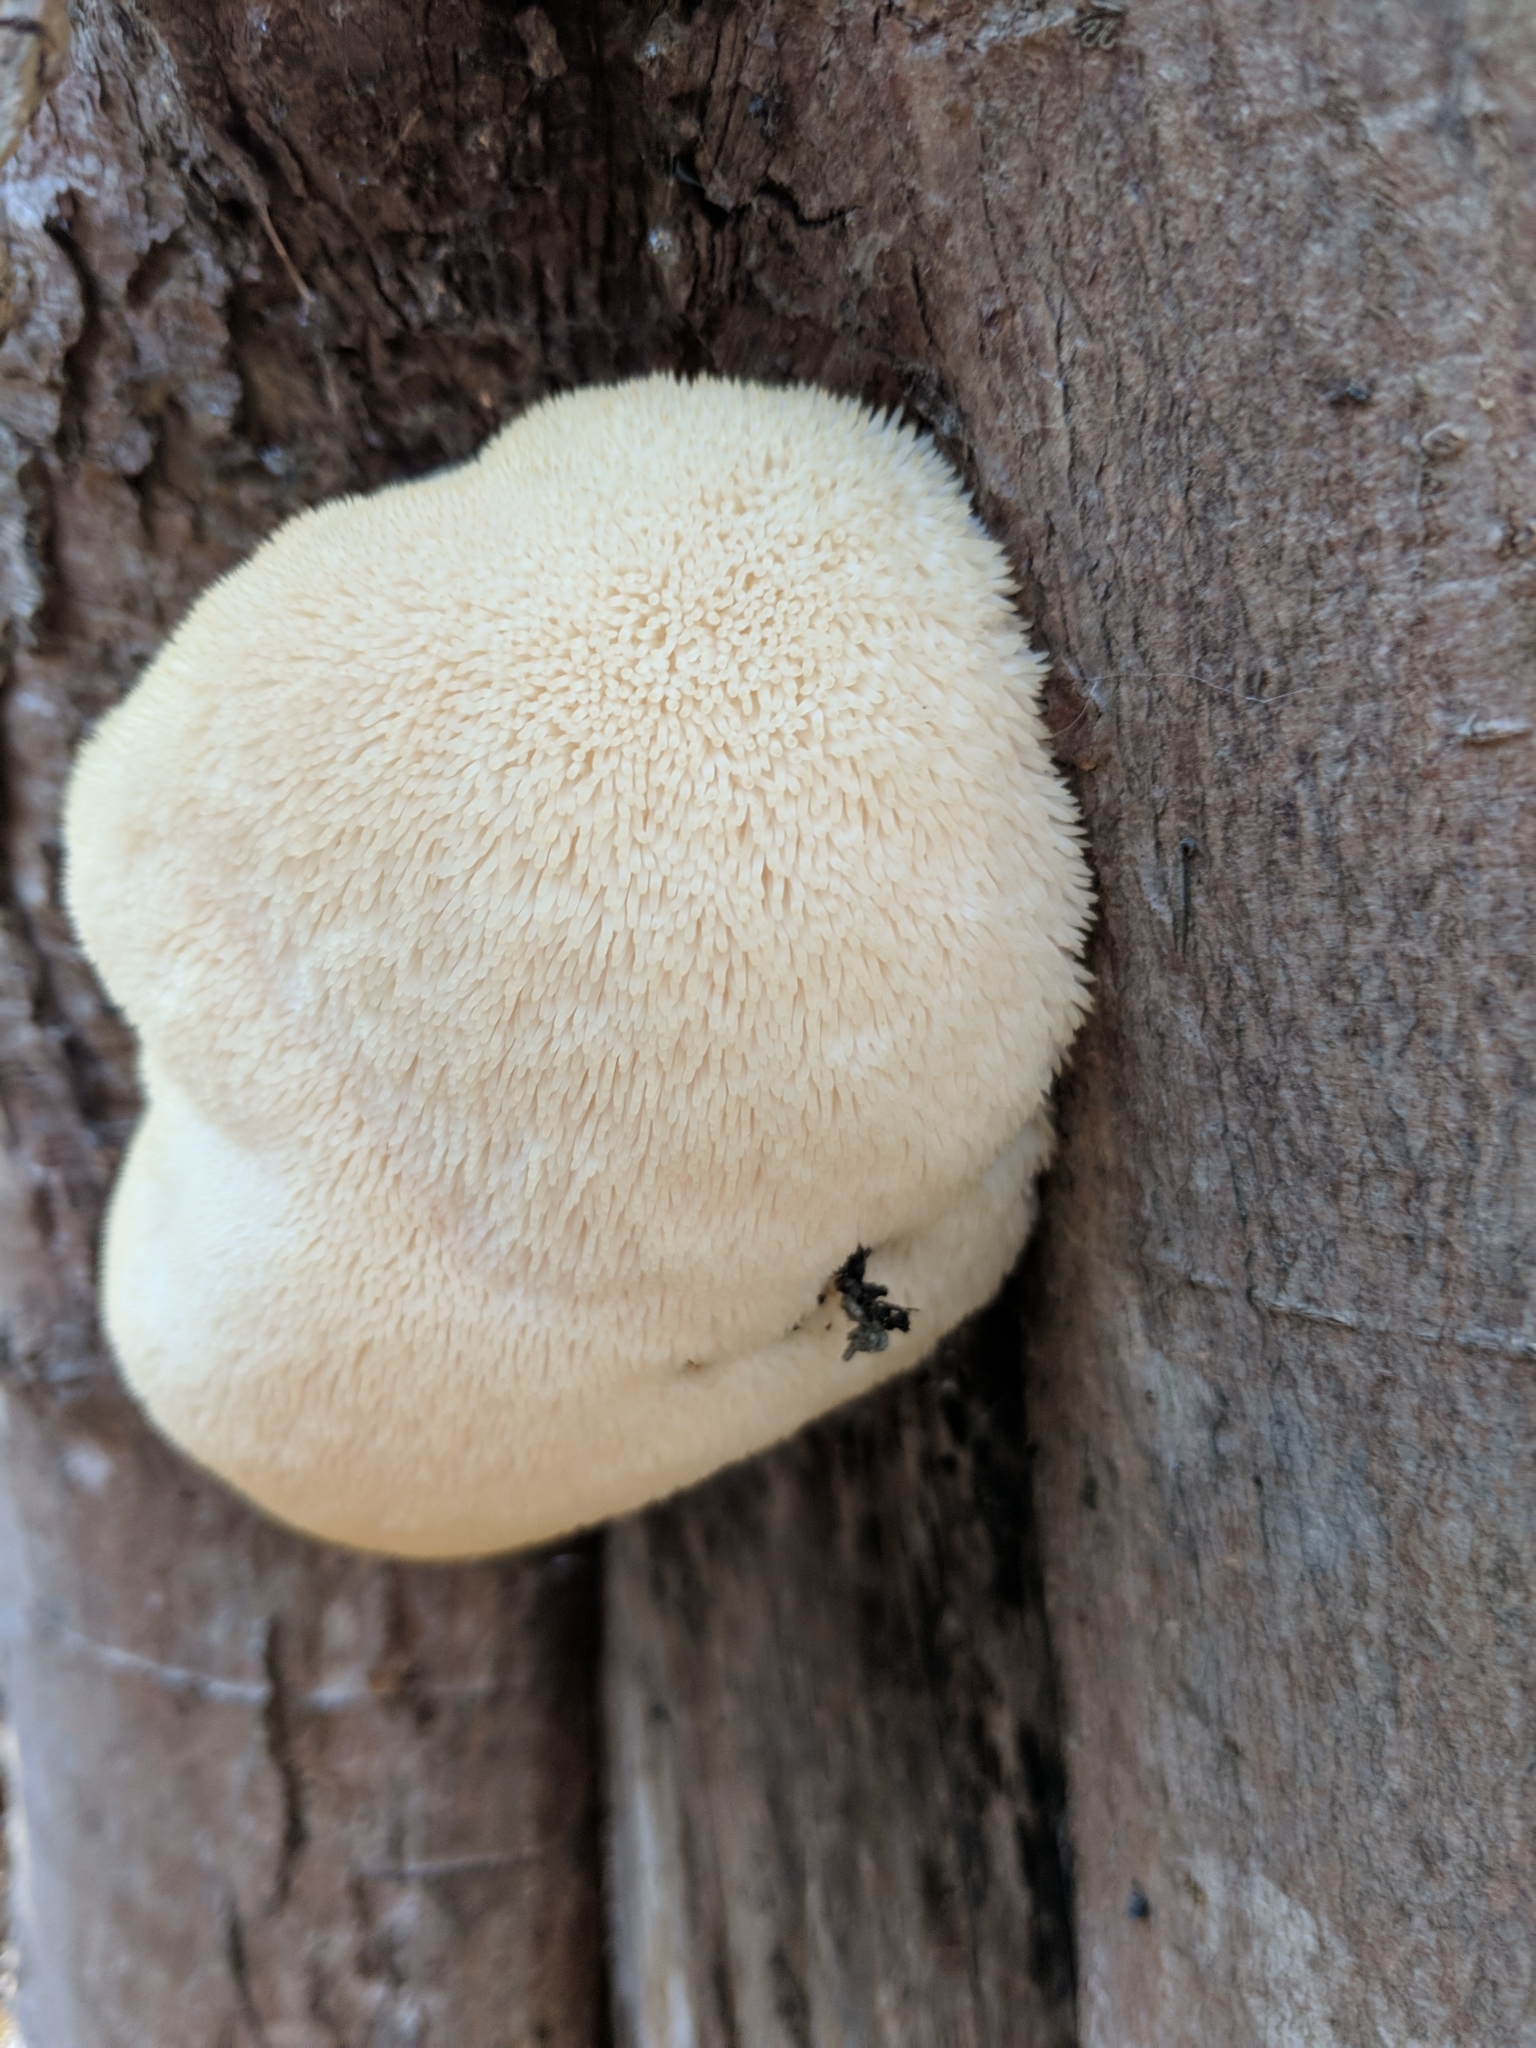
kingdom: Fungi
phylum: Basidiomycota
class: Agaricomycetes
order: Russulales
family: Hericiaceae
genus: Hericium
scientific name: Hericium erinaceus
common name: Bearded tooth
